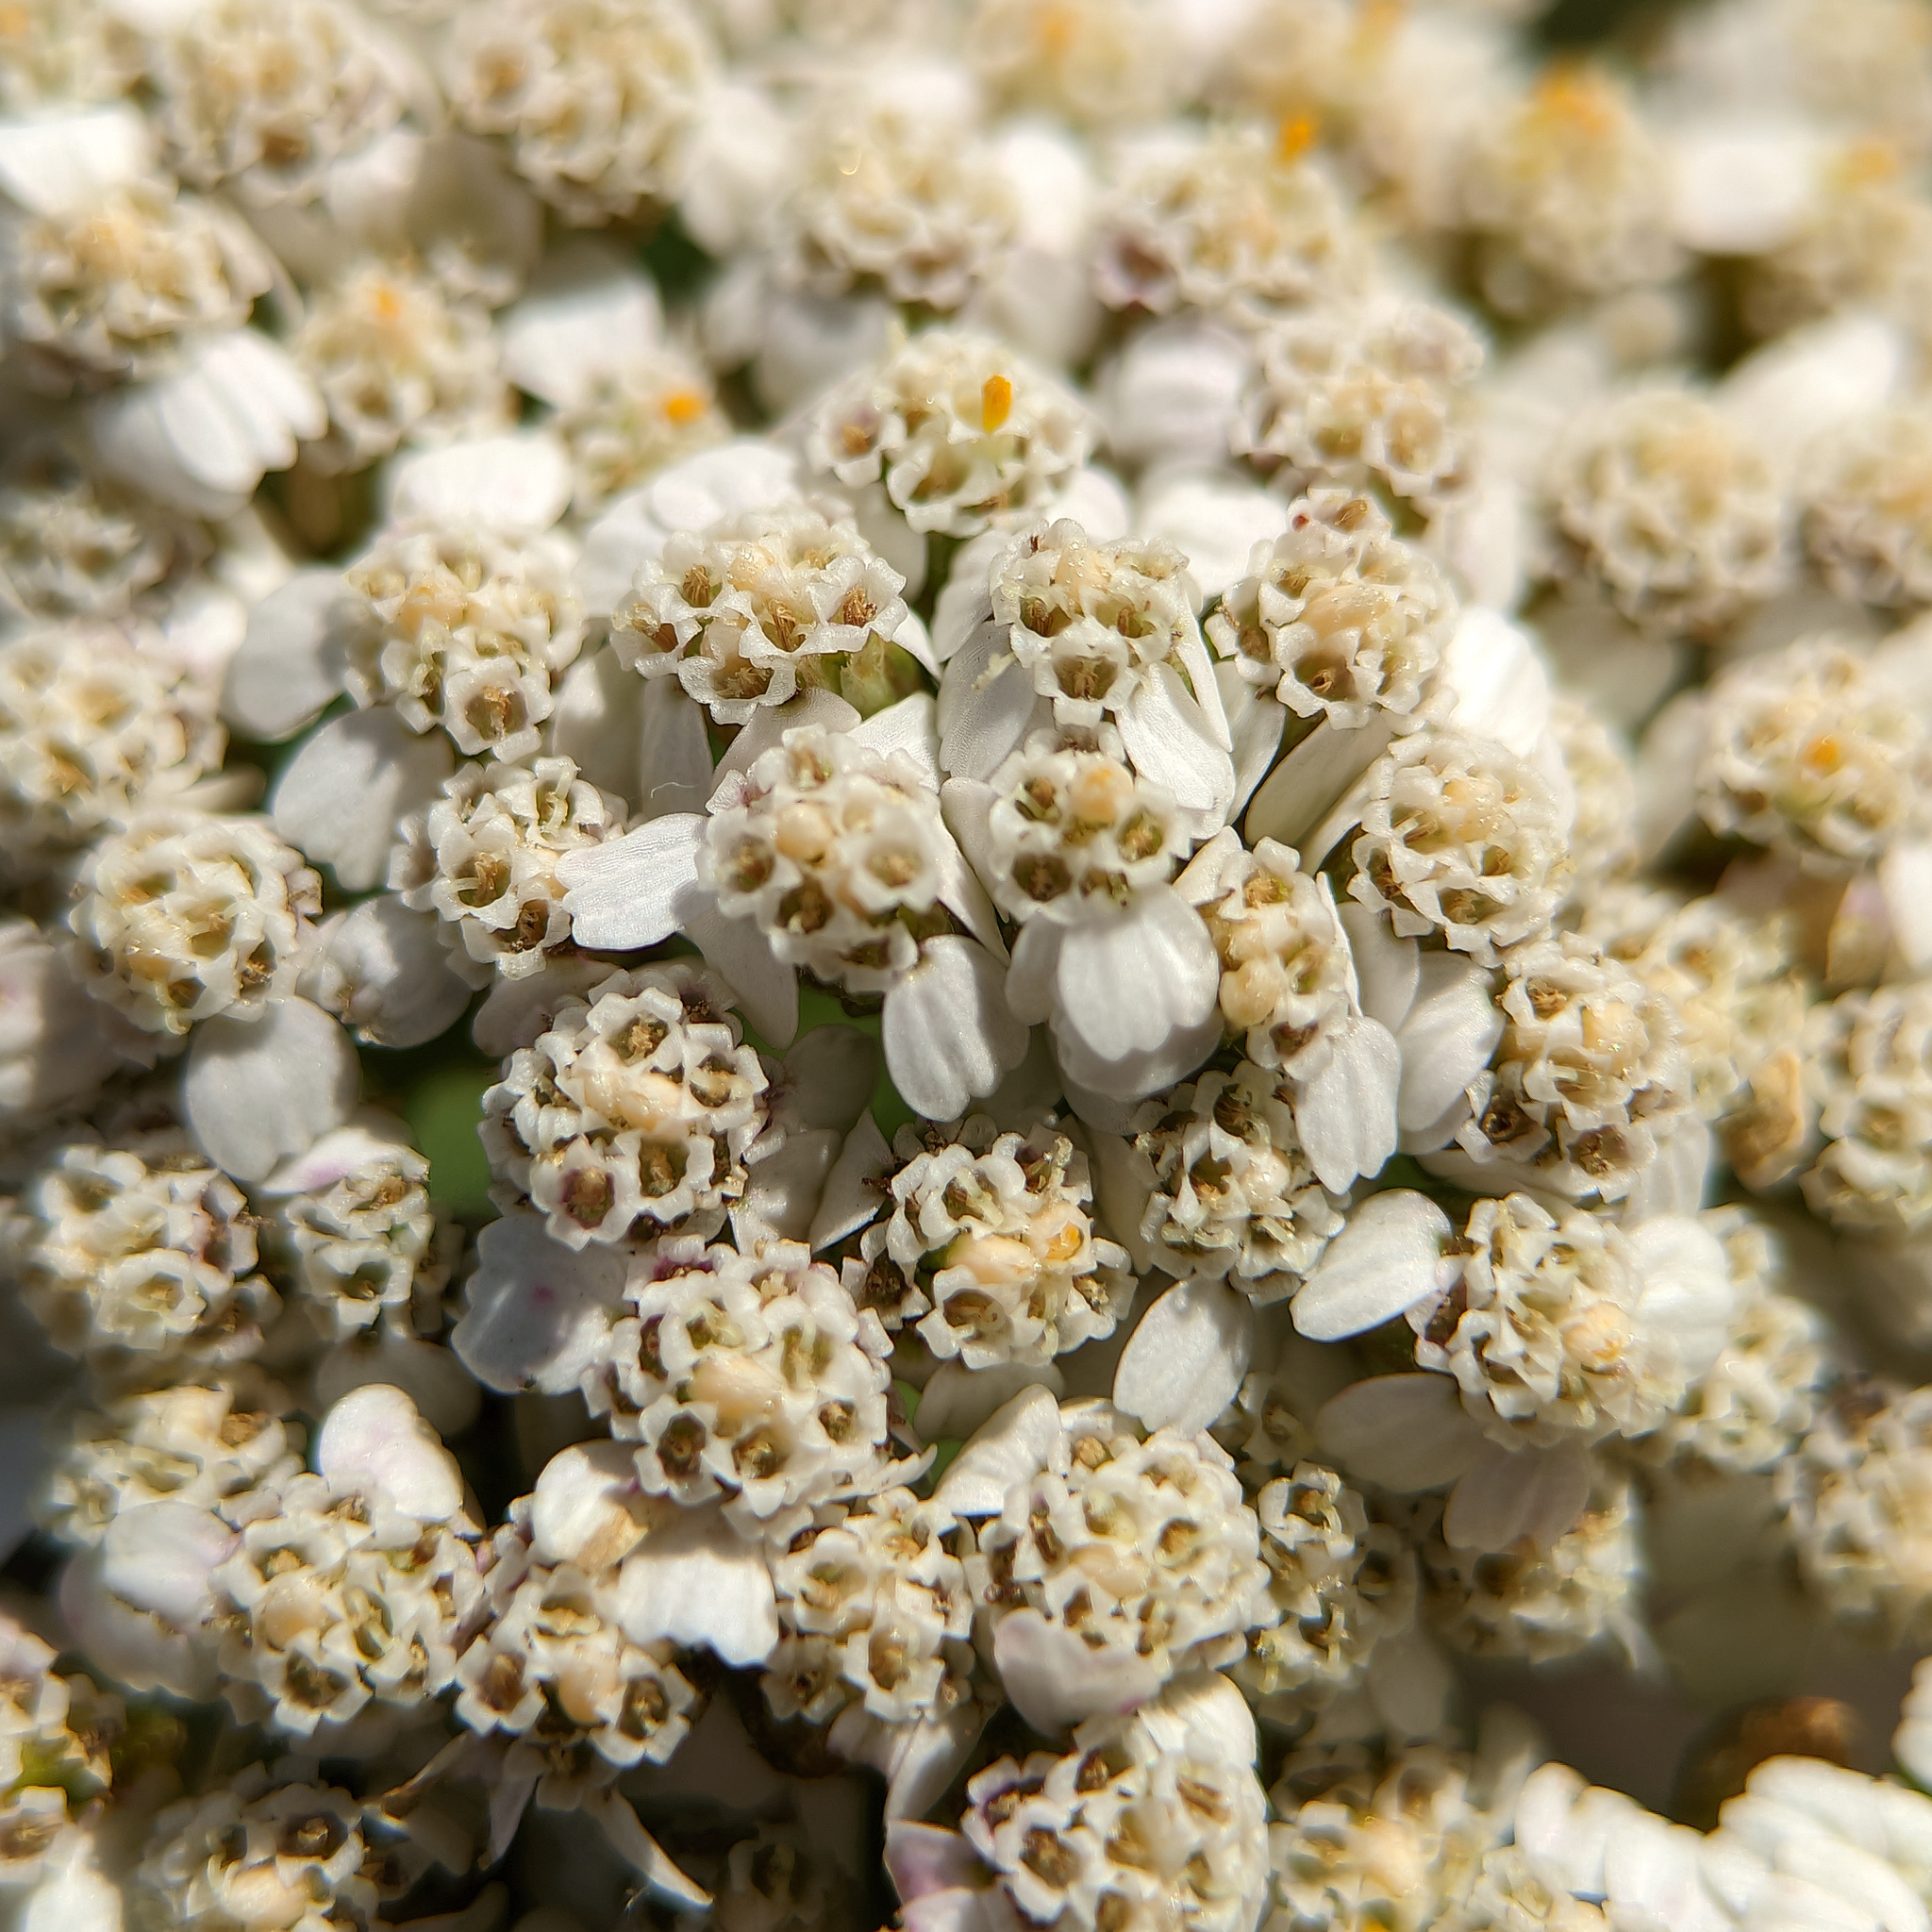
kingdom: Plantae
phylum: Tracheophyta
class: Magnoliopsida
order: Asterales
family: Asteraceae
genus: Achillea
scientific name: Achillea millefolium
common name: Yarrow
